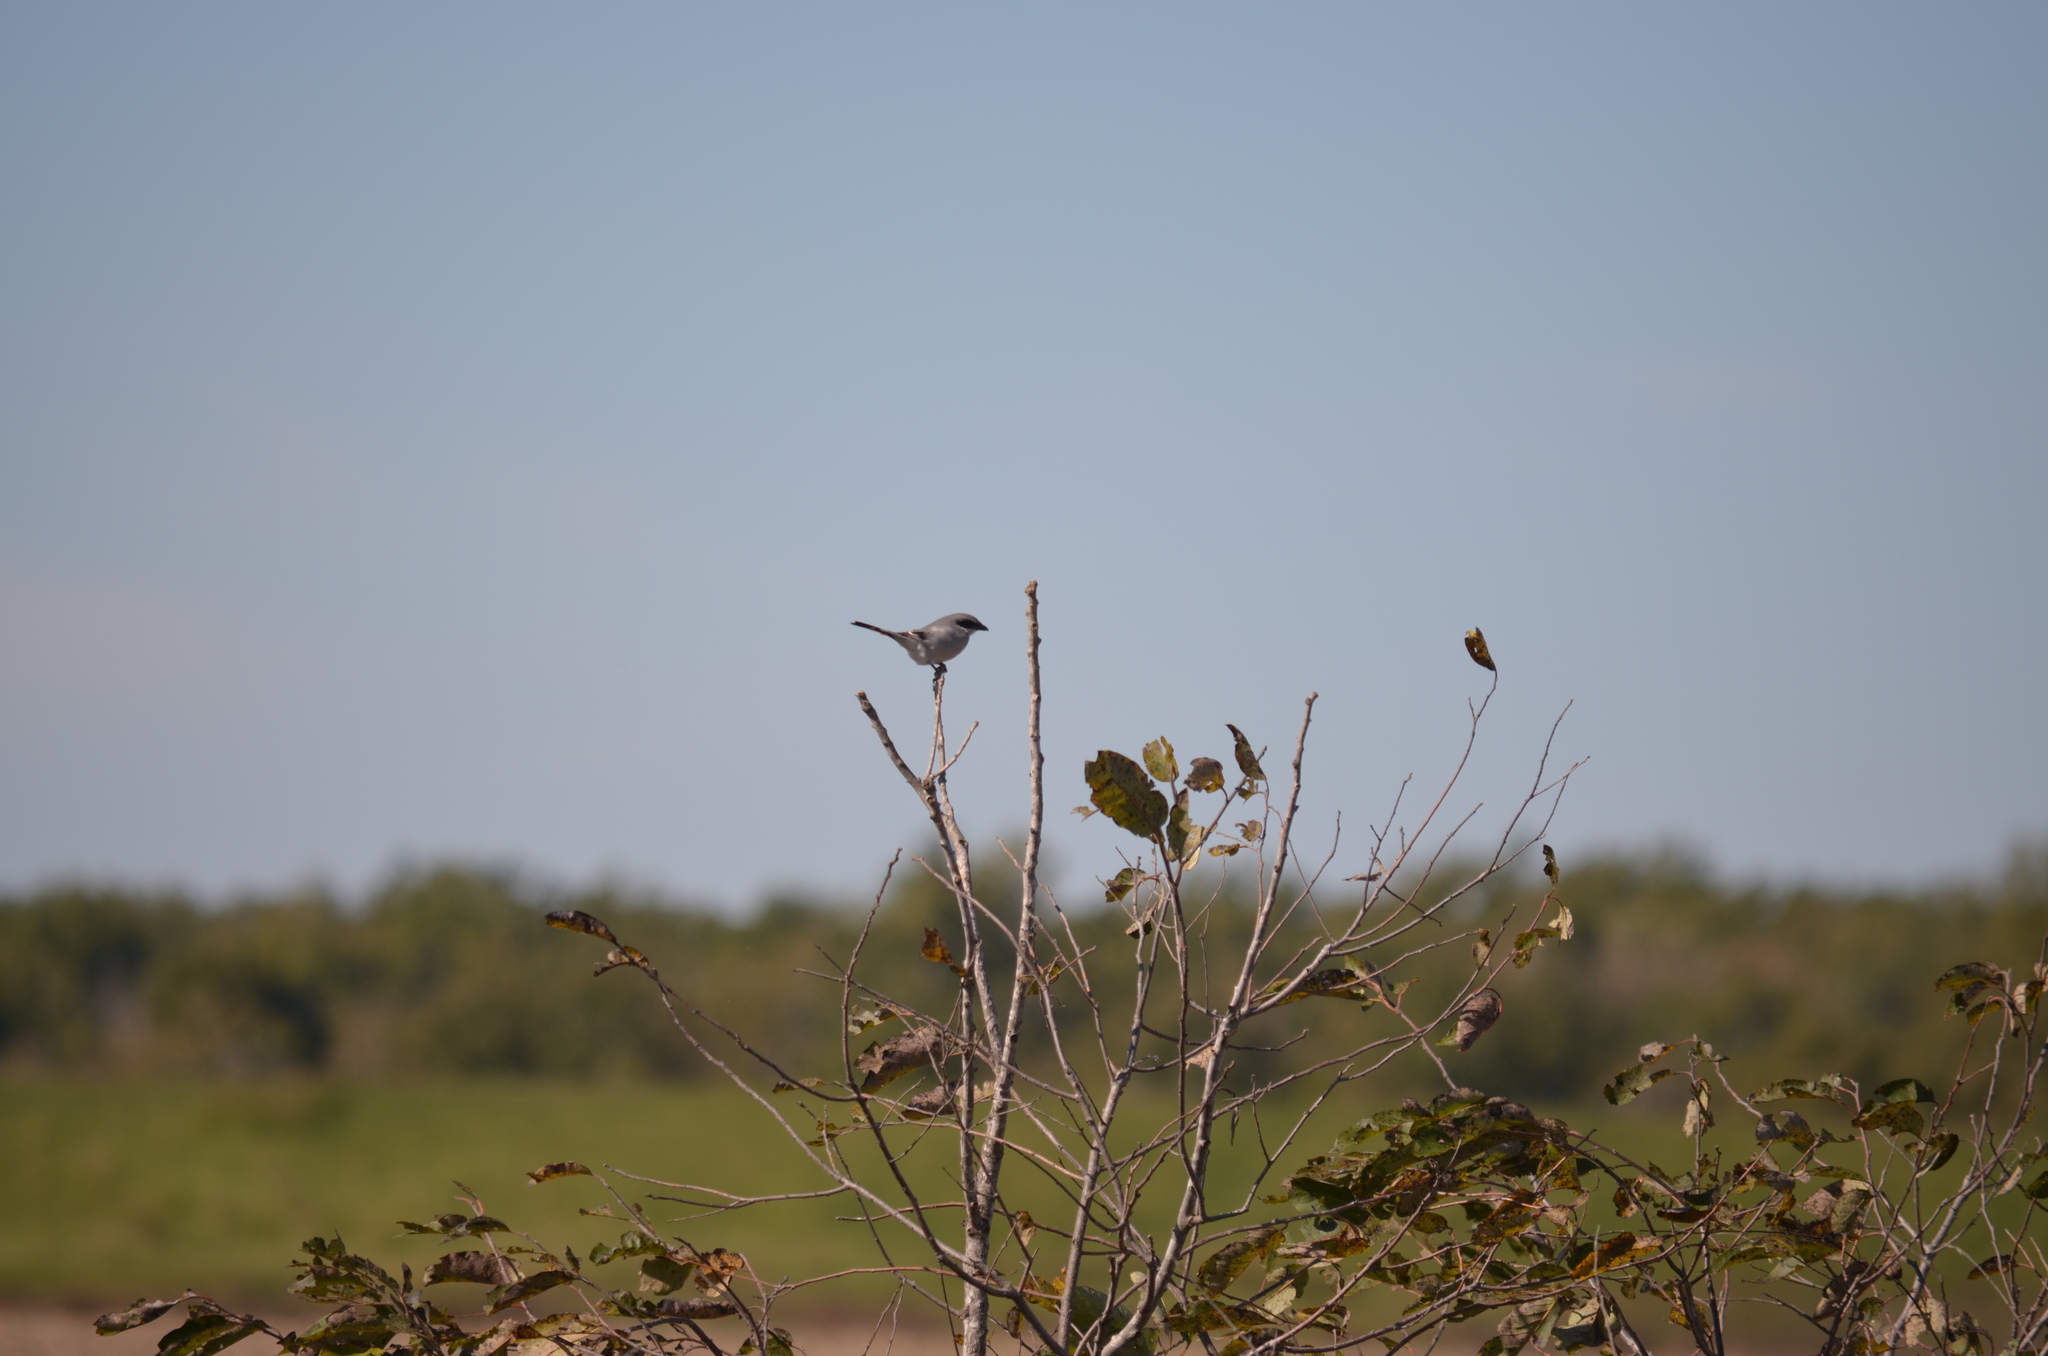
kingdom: Animalia
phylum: Chordata
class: Aves
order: Passeriformes
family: Laniidae
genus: Lanius
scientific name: Lanius ludovicianus
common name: Loggerhead shrike
